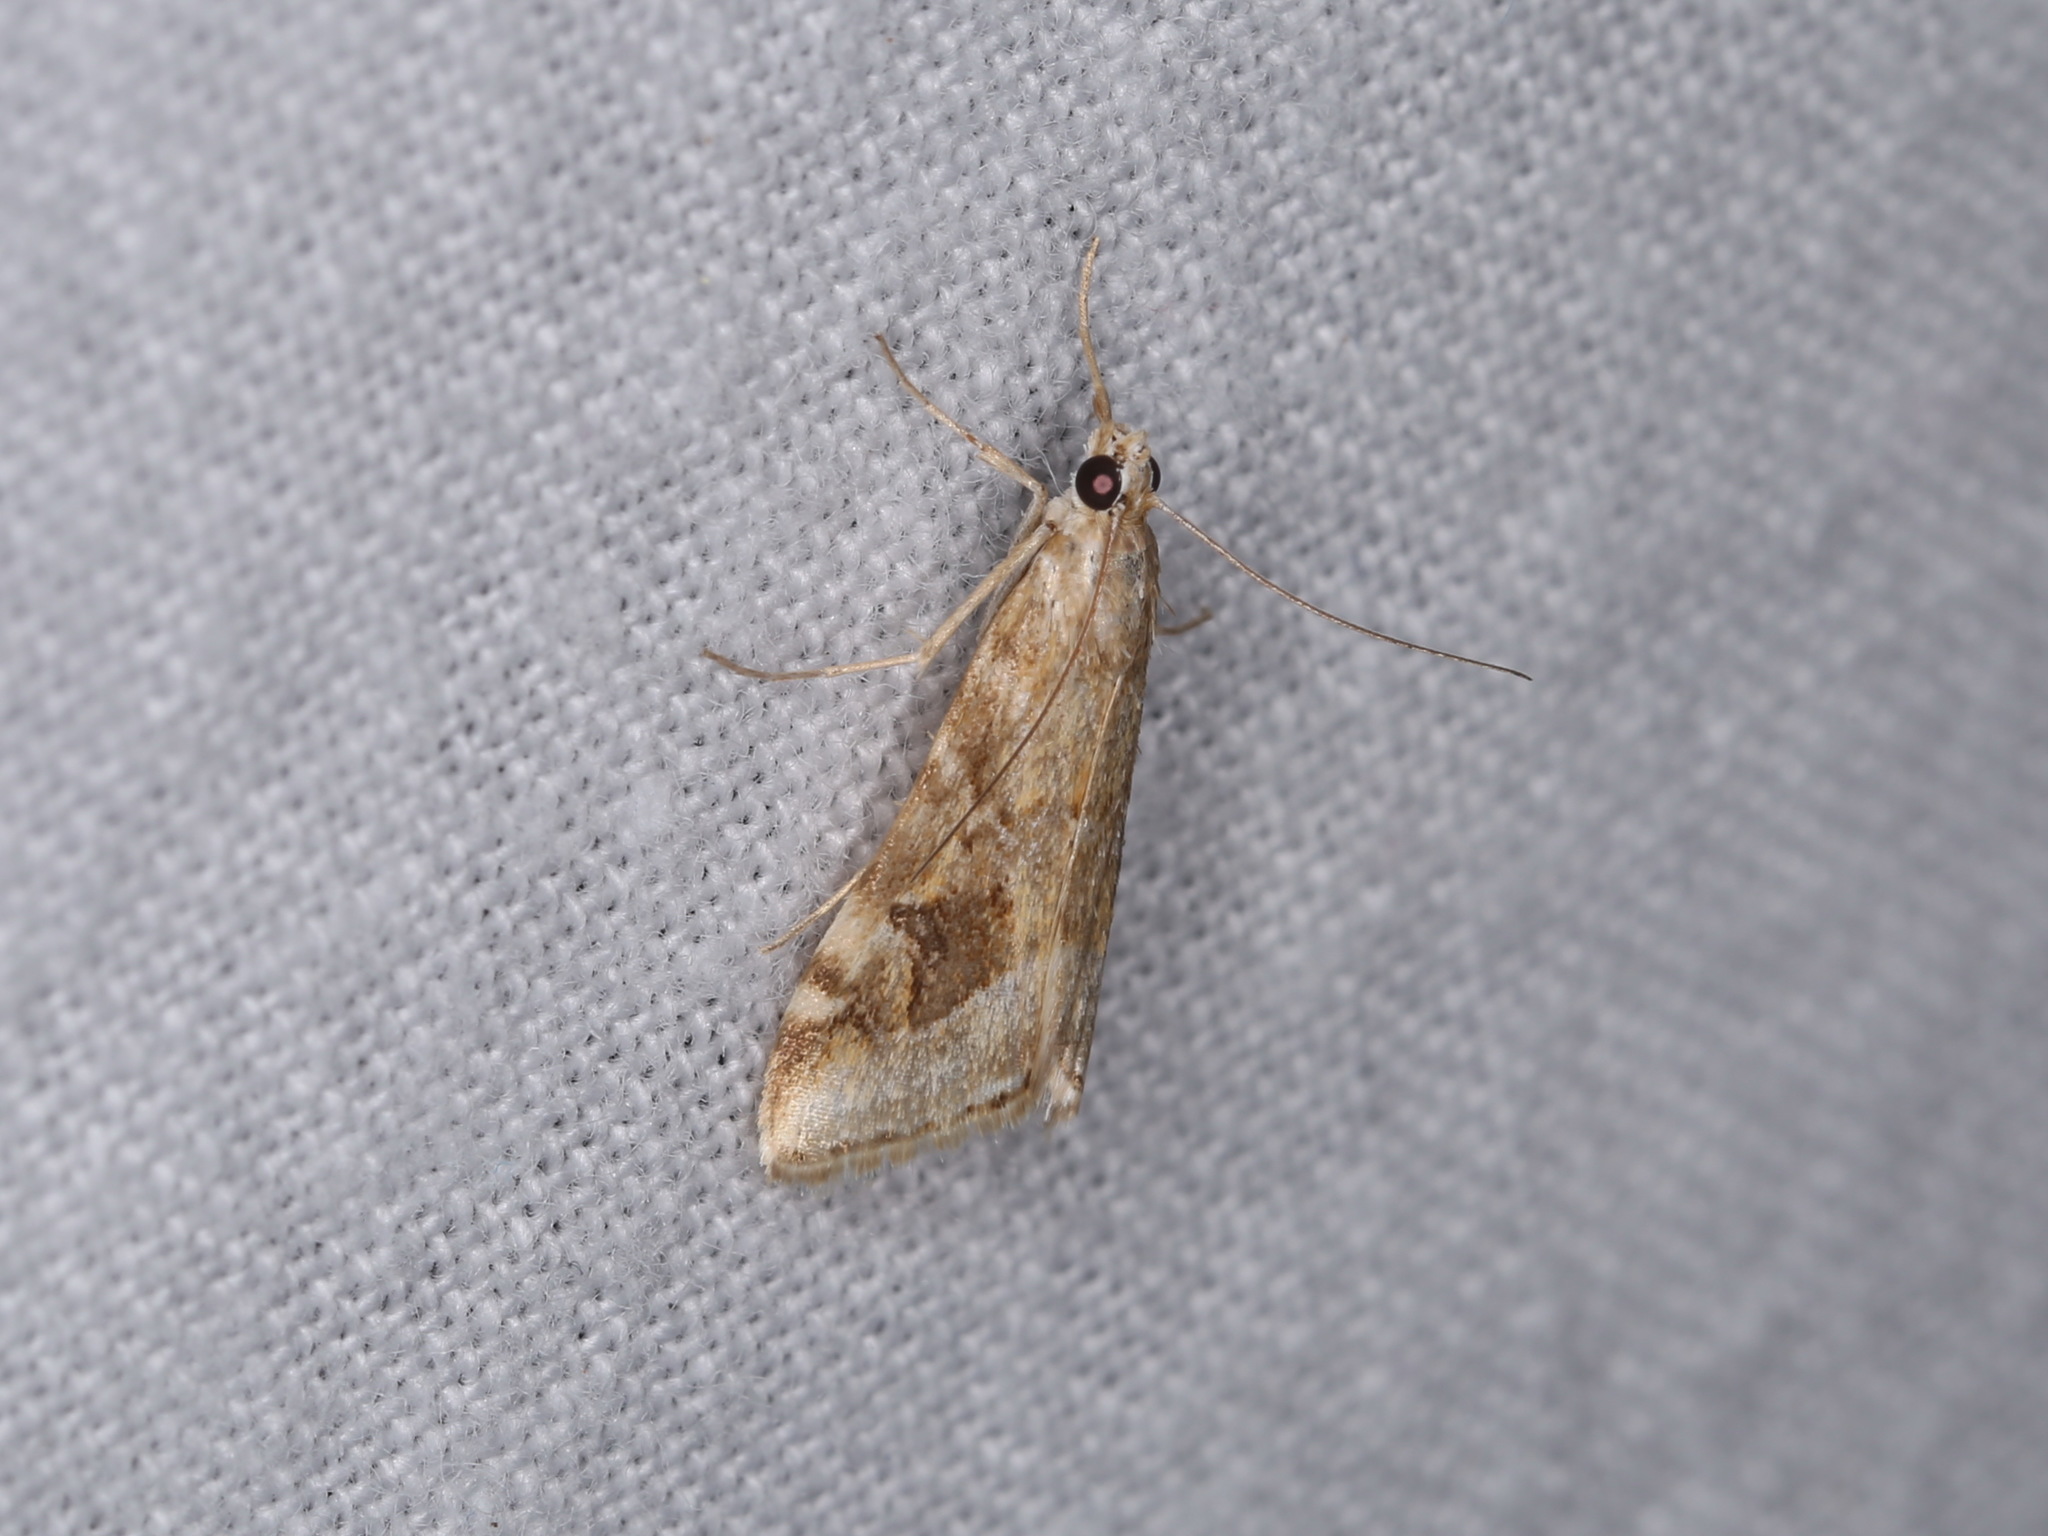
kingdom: Animalia
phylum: Arthropoda
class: Insecta
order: Lepidoptera
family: Crambidae
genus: Hellula
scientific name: Hellula hydralis
